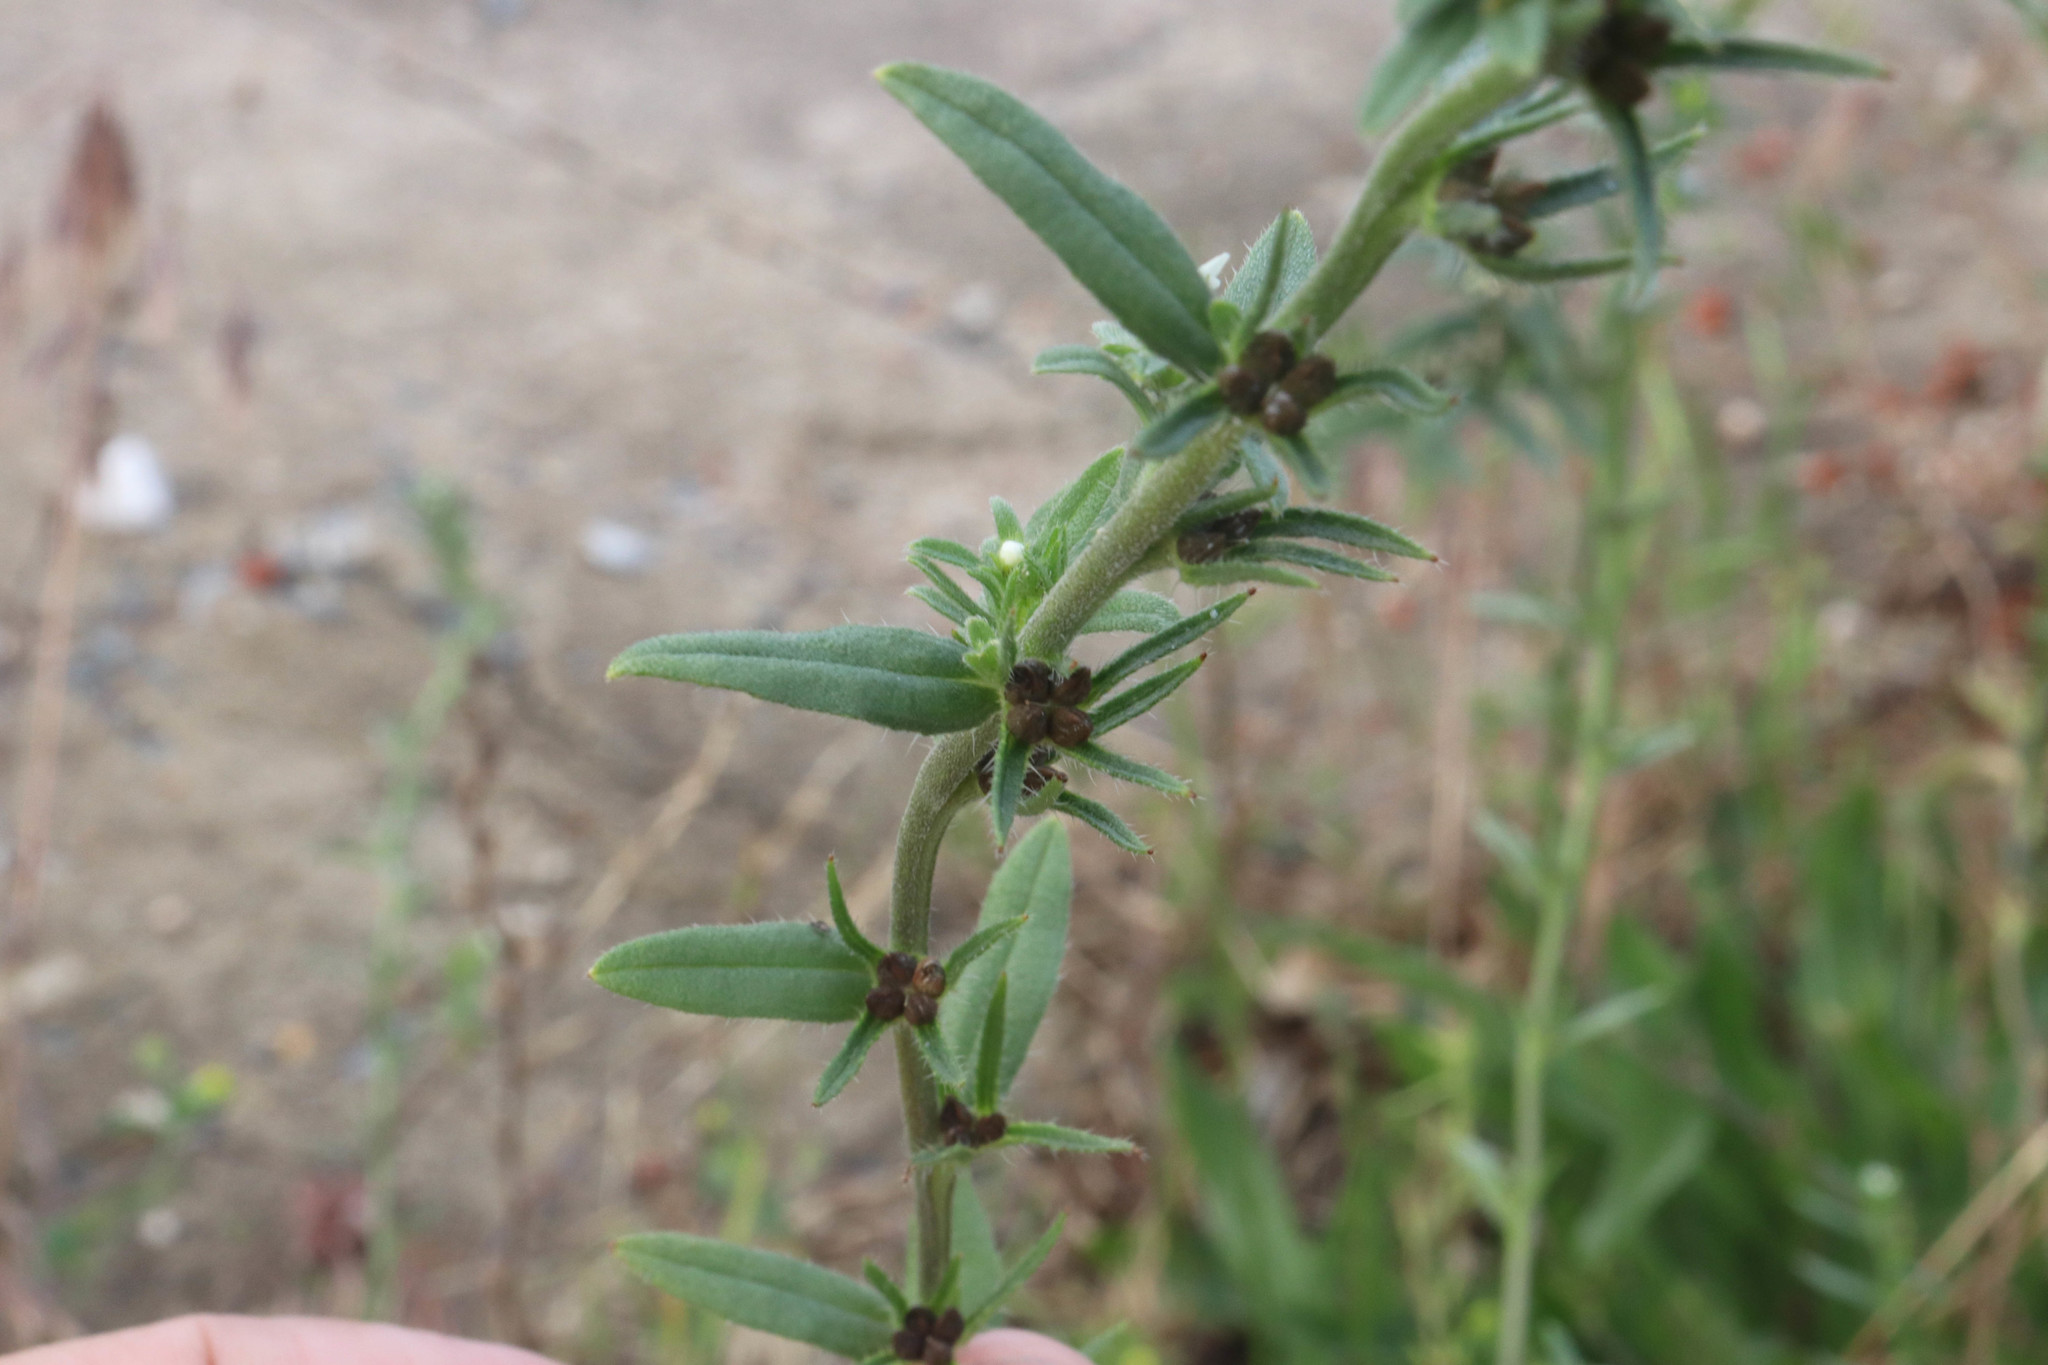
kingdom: Plantae
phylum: Tracheophyta
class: Magnoliopsida
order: Boraginales
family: Boraginaceae
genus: Buglossoides
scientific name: Buglossoides arvensis
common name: Corn gromwell
